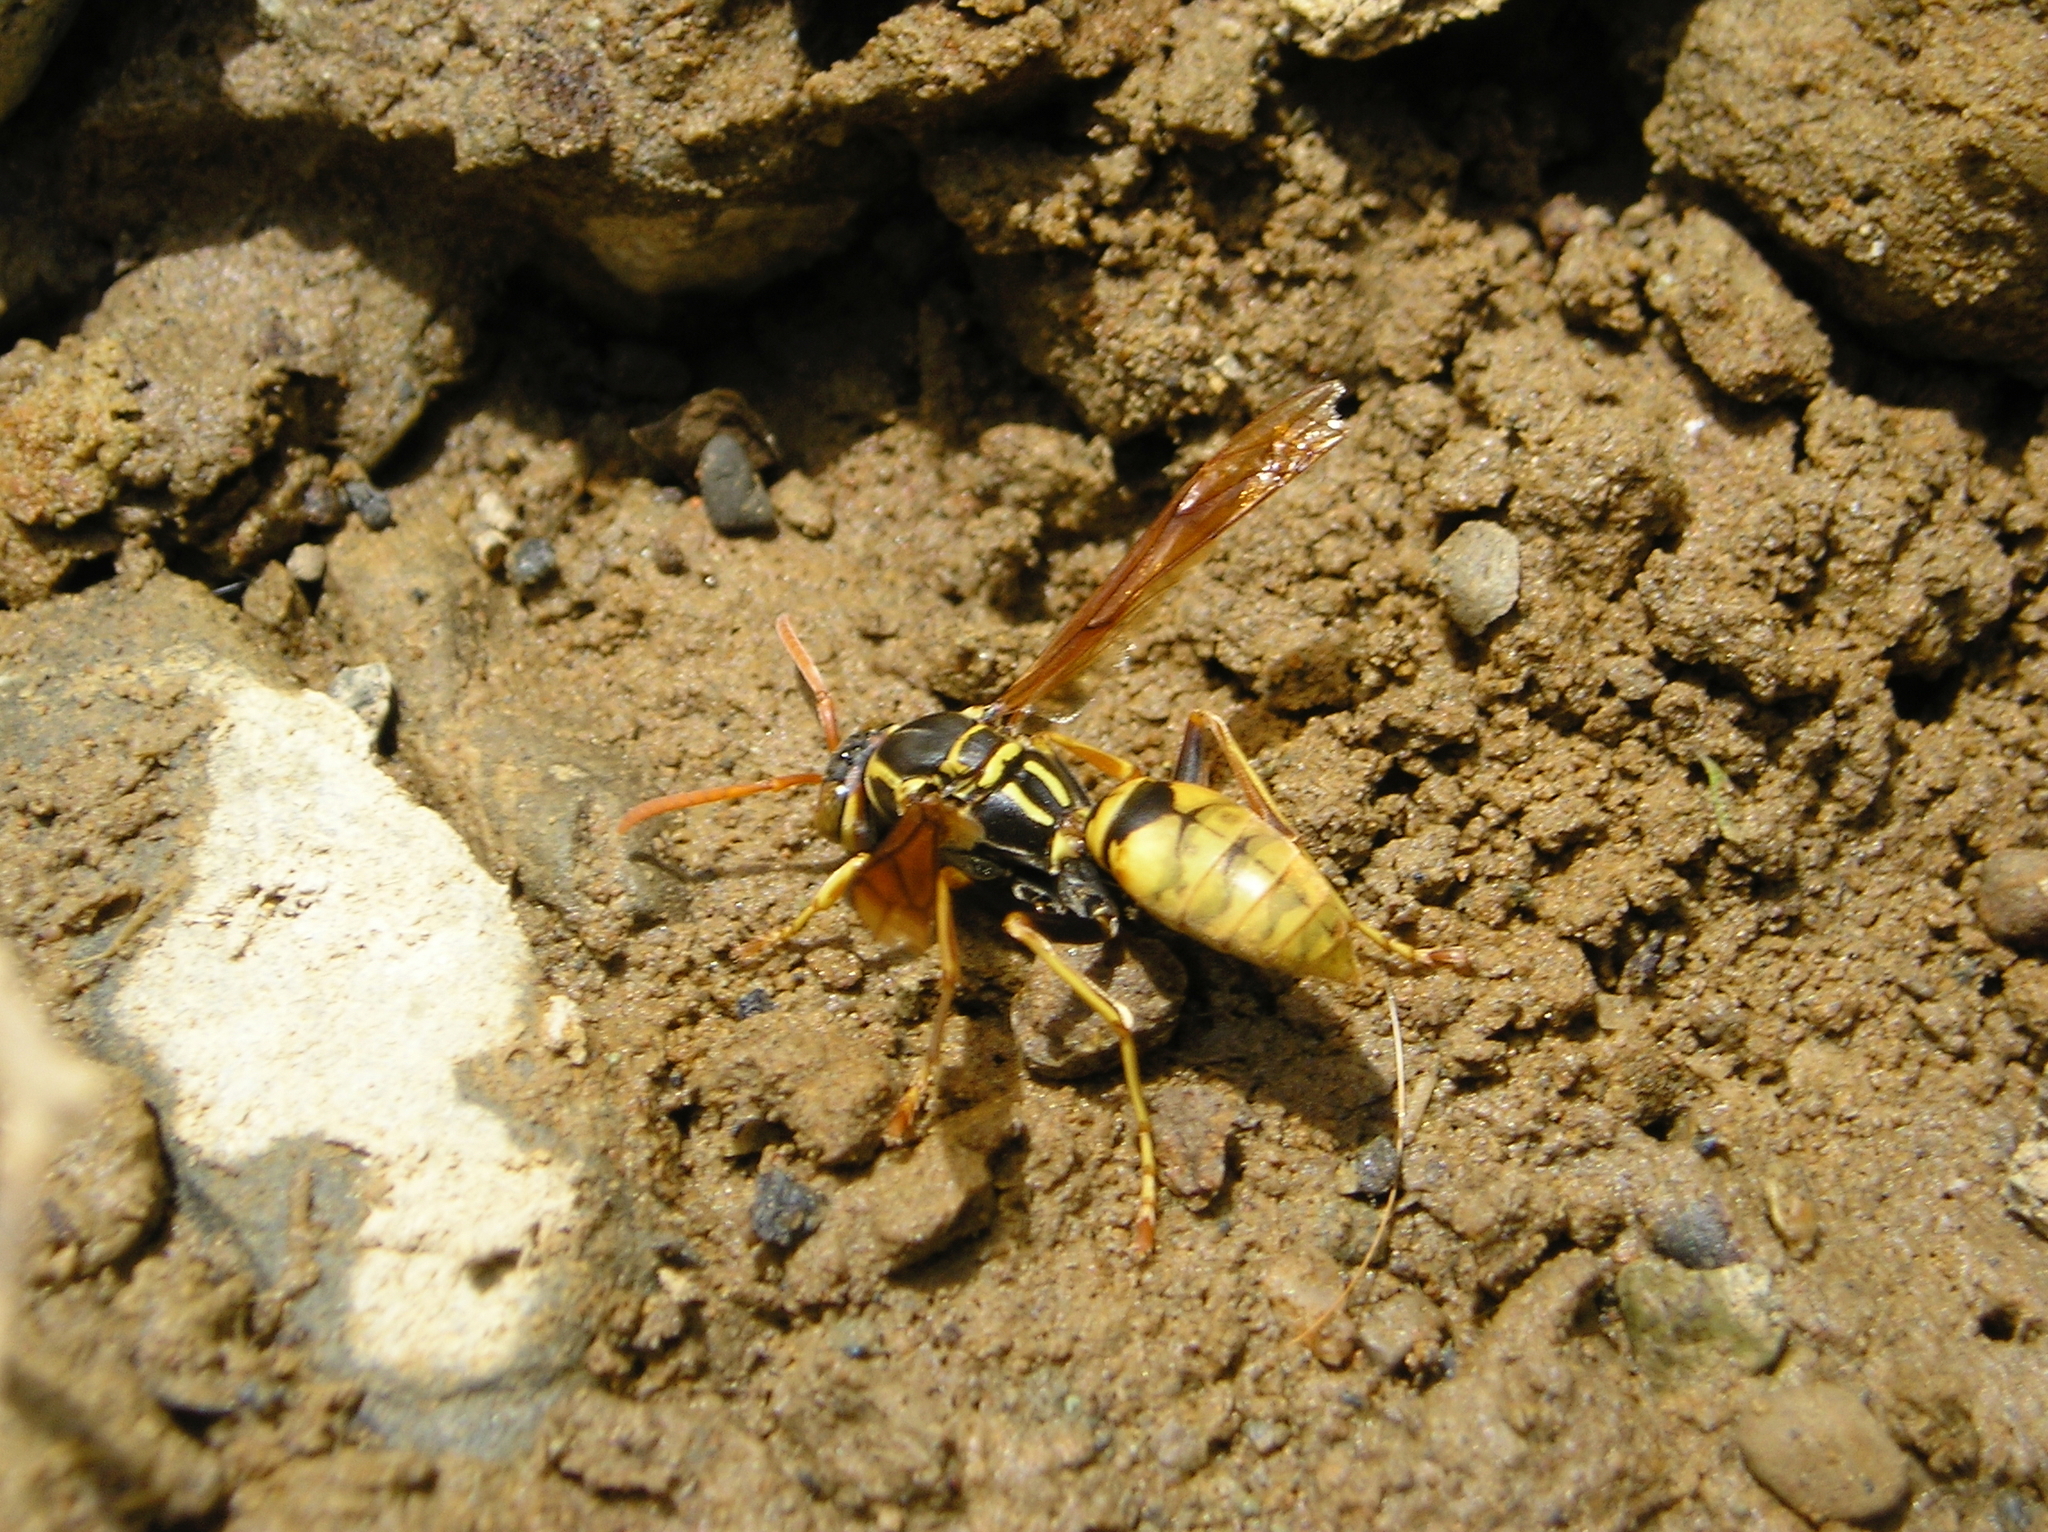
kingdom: Animalia
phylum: Arthropoda
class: Insecta
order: Hymenoptera
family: Eumenidae
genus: Polistes
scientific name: Polistes aurifer
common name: Paper wasp
